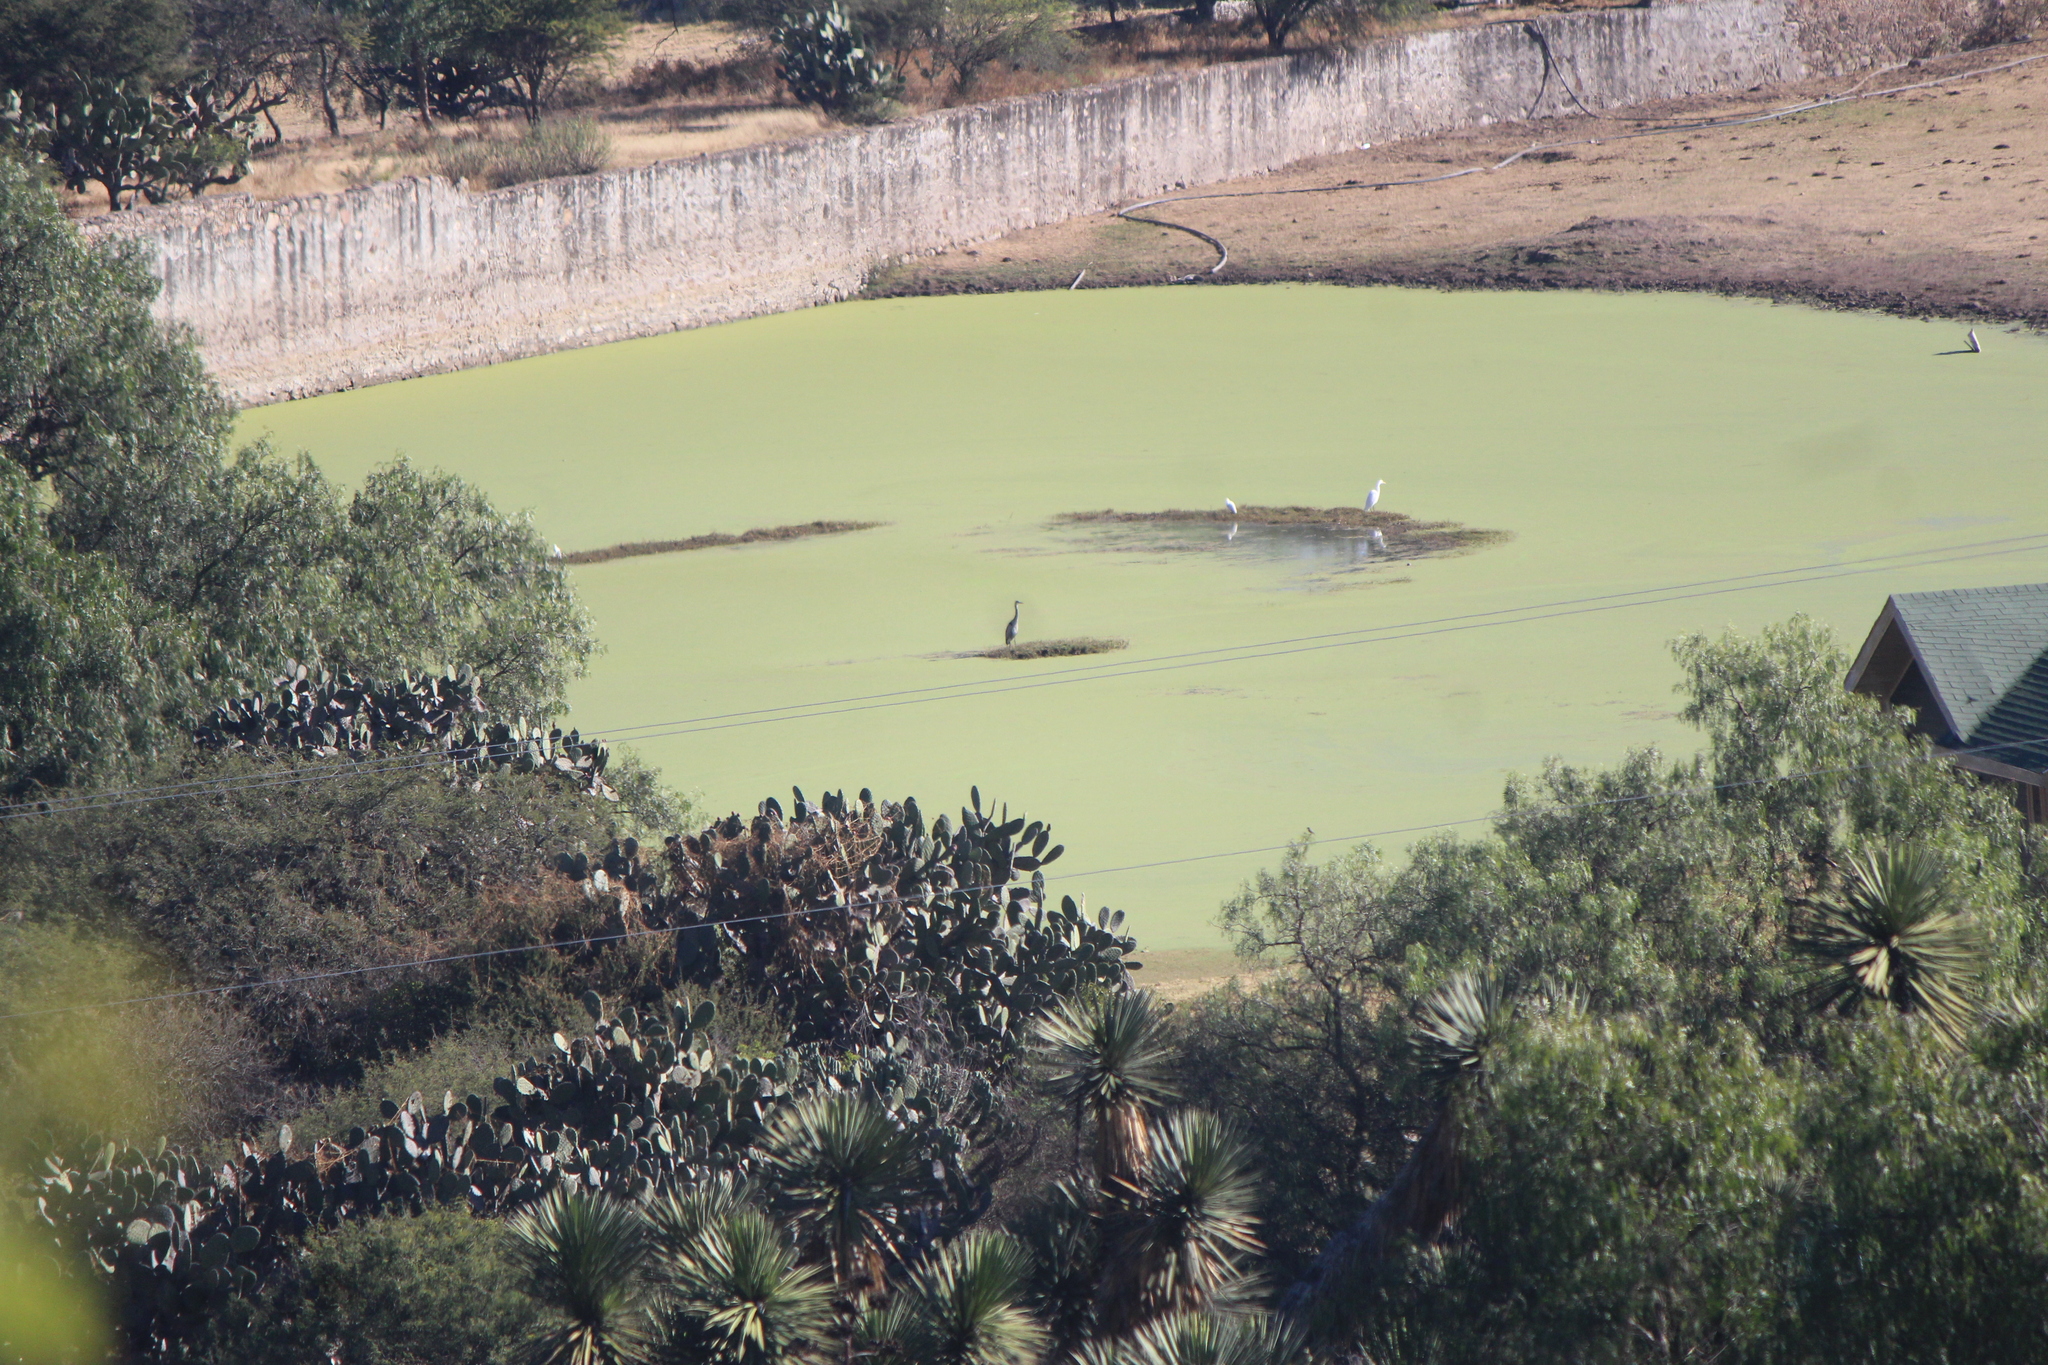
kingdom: Animalia
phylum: Chordata
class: Aves
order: Pelecaniformes
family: Ardeidae
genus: Ardea
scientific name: Ardea herodias
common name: Great blue heron
